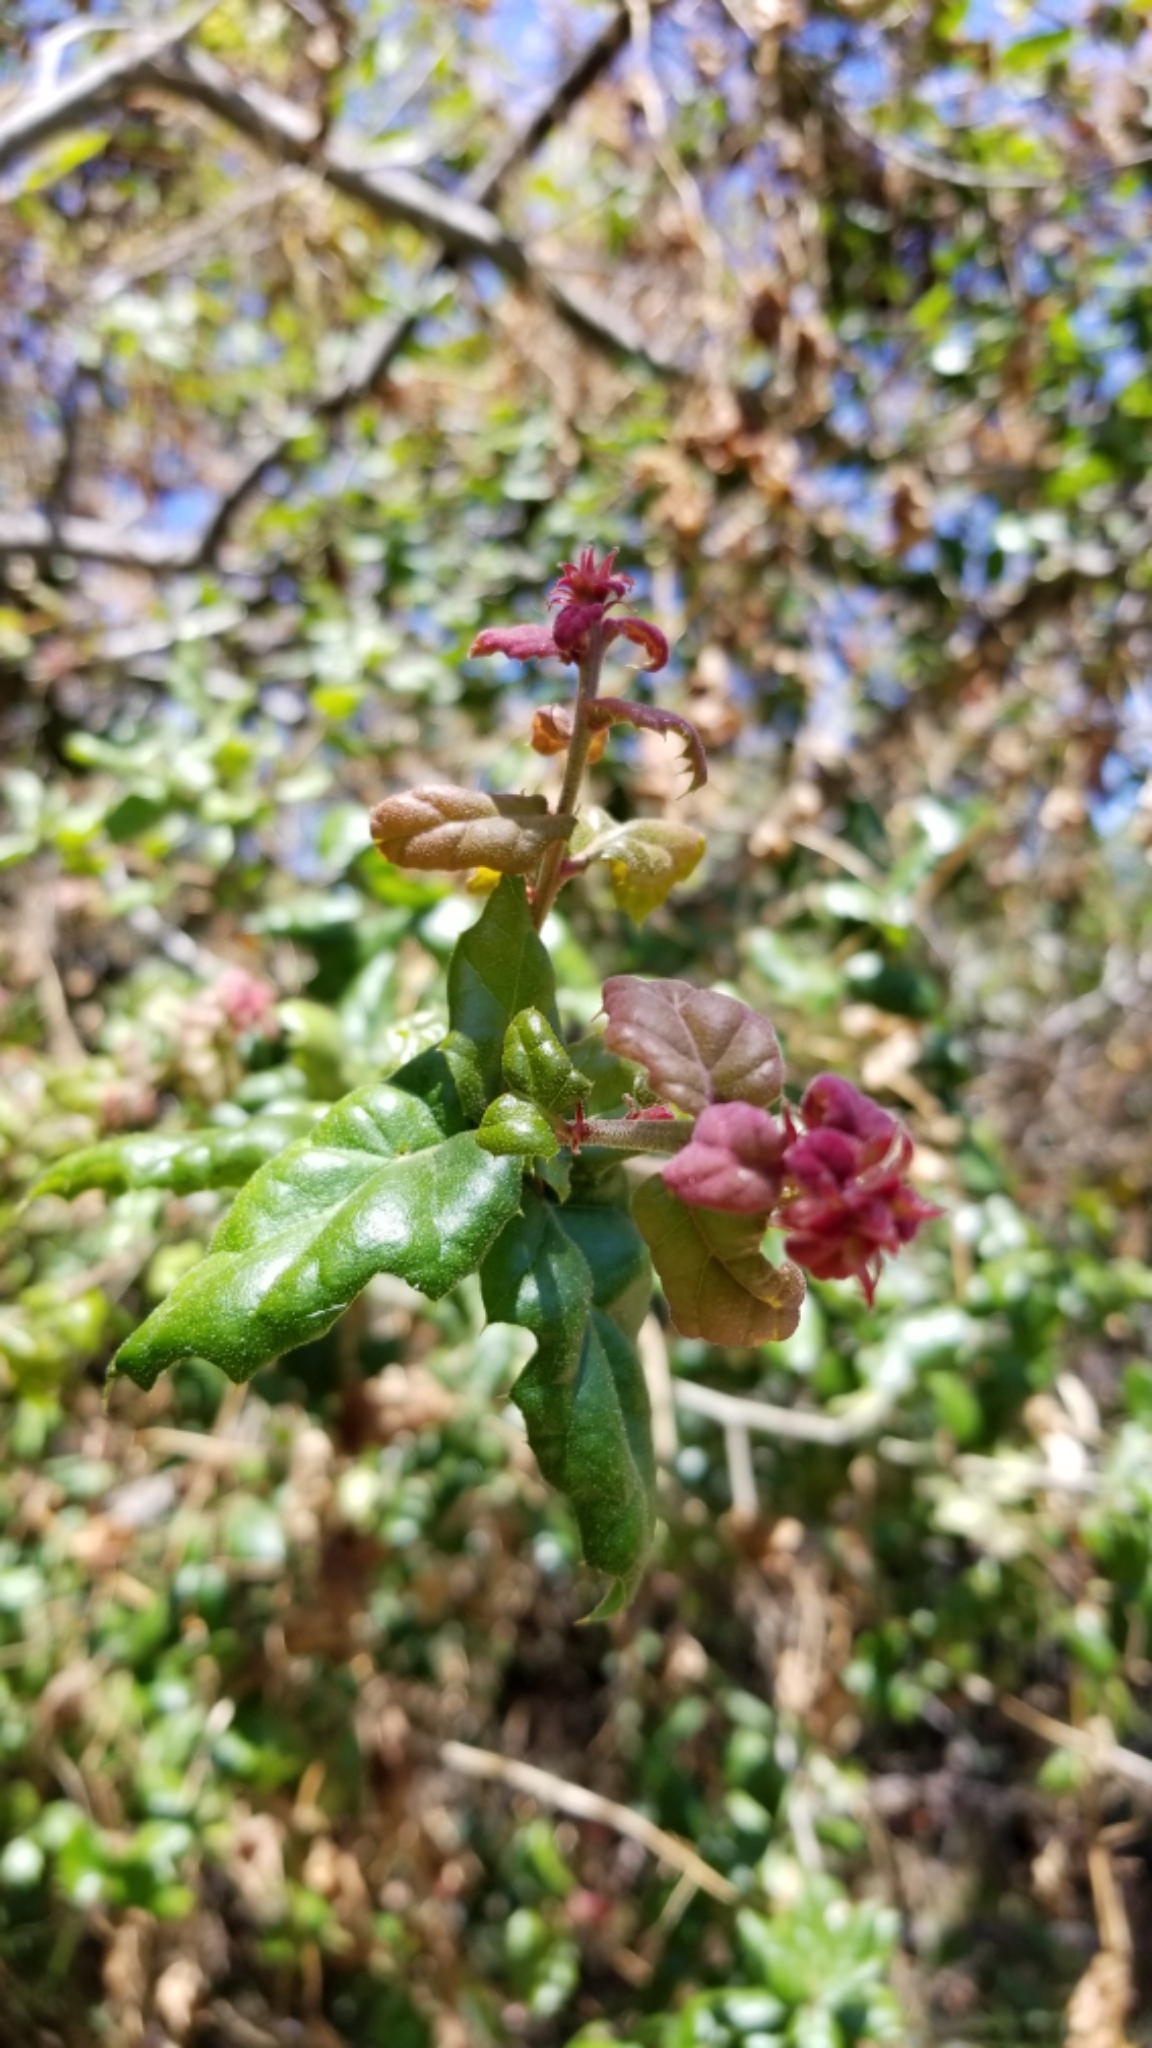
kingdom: Plantae
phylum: Tracheophyta
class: Magnoliopsida
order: Fagales
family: Fagaceae
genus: Quercus
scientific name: Quercus agrifolia
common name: California live oak
